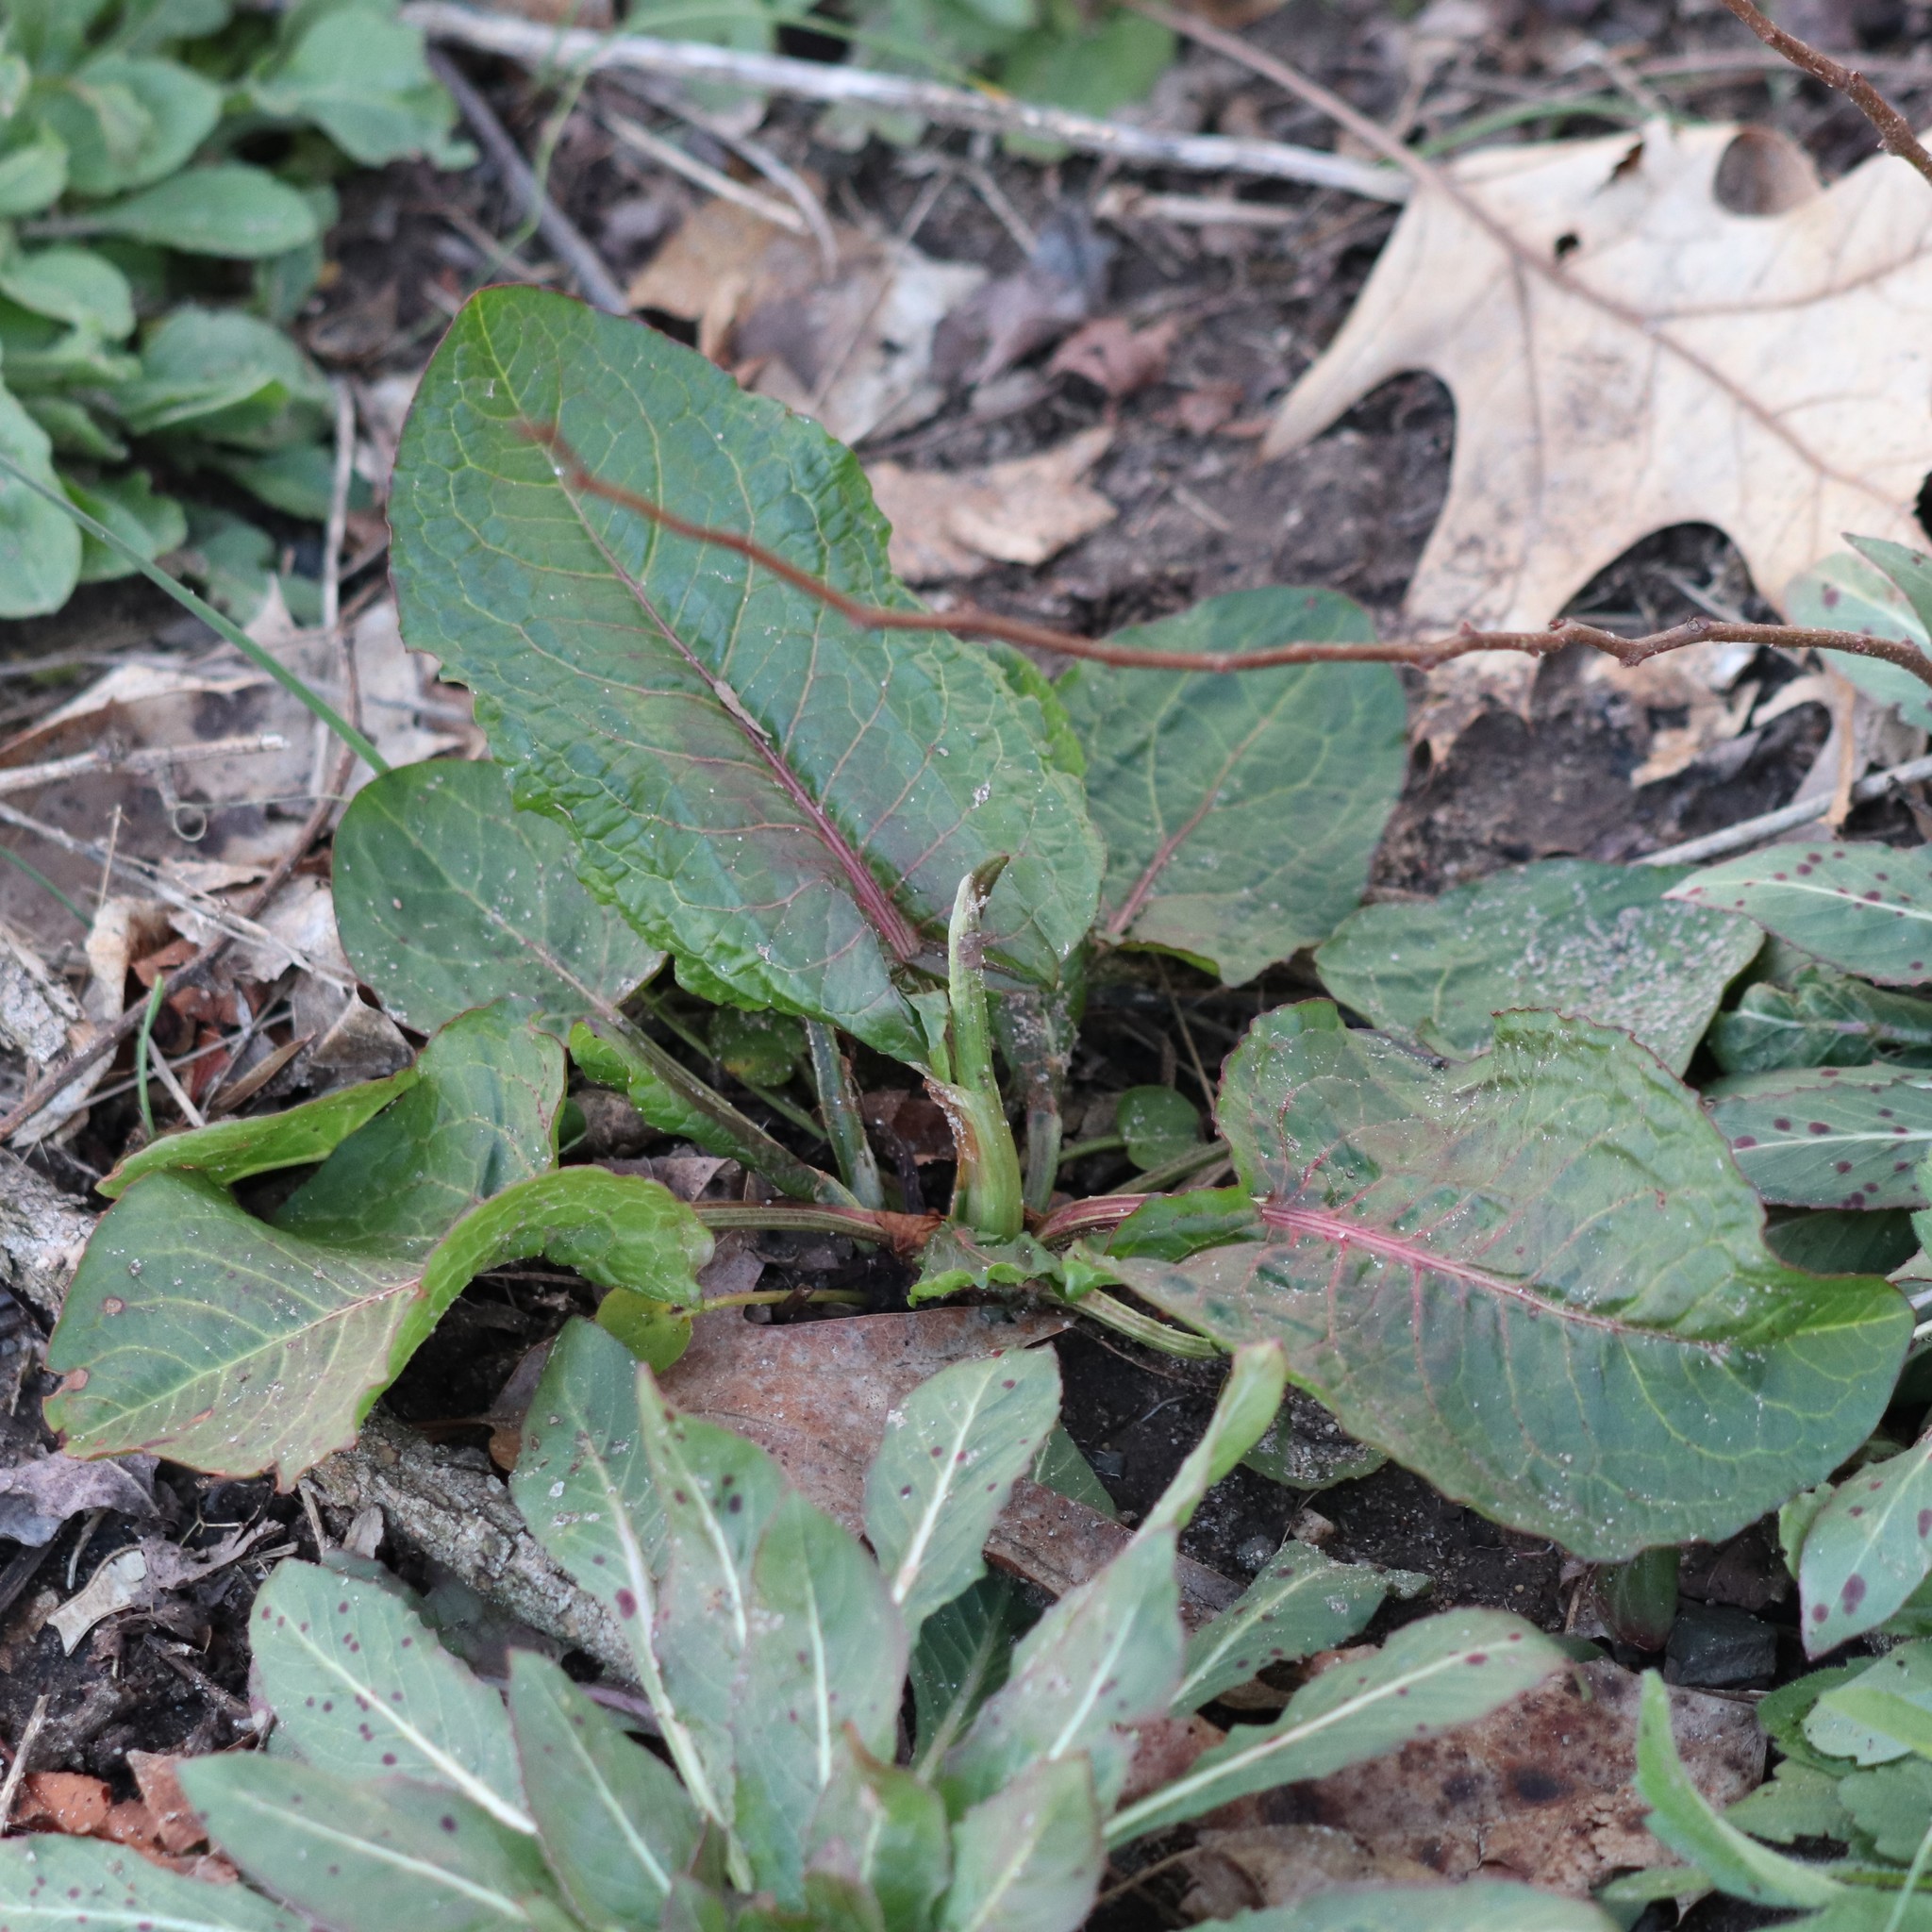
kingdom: Plantae
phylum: Tracheophyta
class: Magnoliopsida
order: Caryophyllales
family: Polygonaceae
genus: Rumex
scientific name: Rumex obtusifolius
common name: Bitter dock
